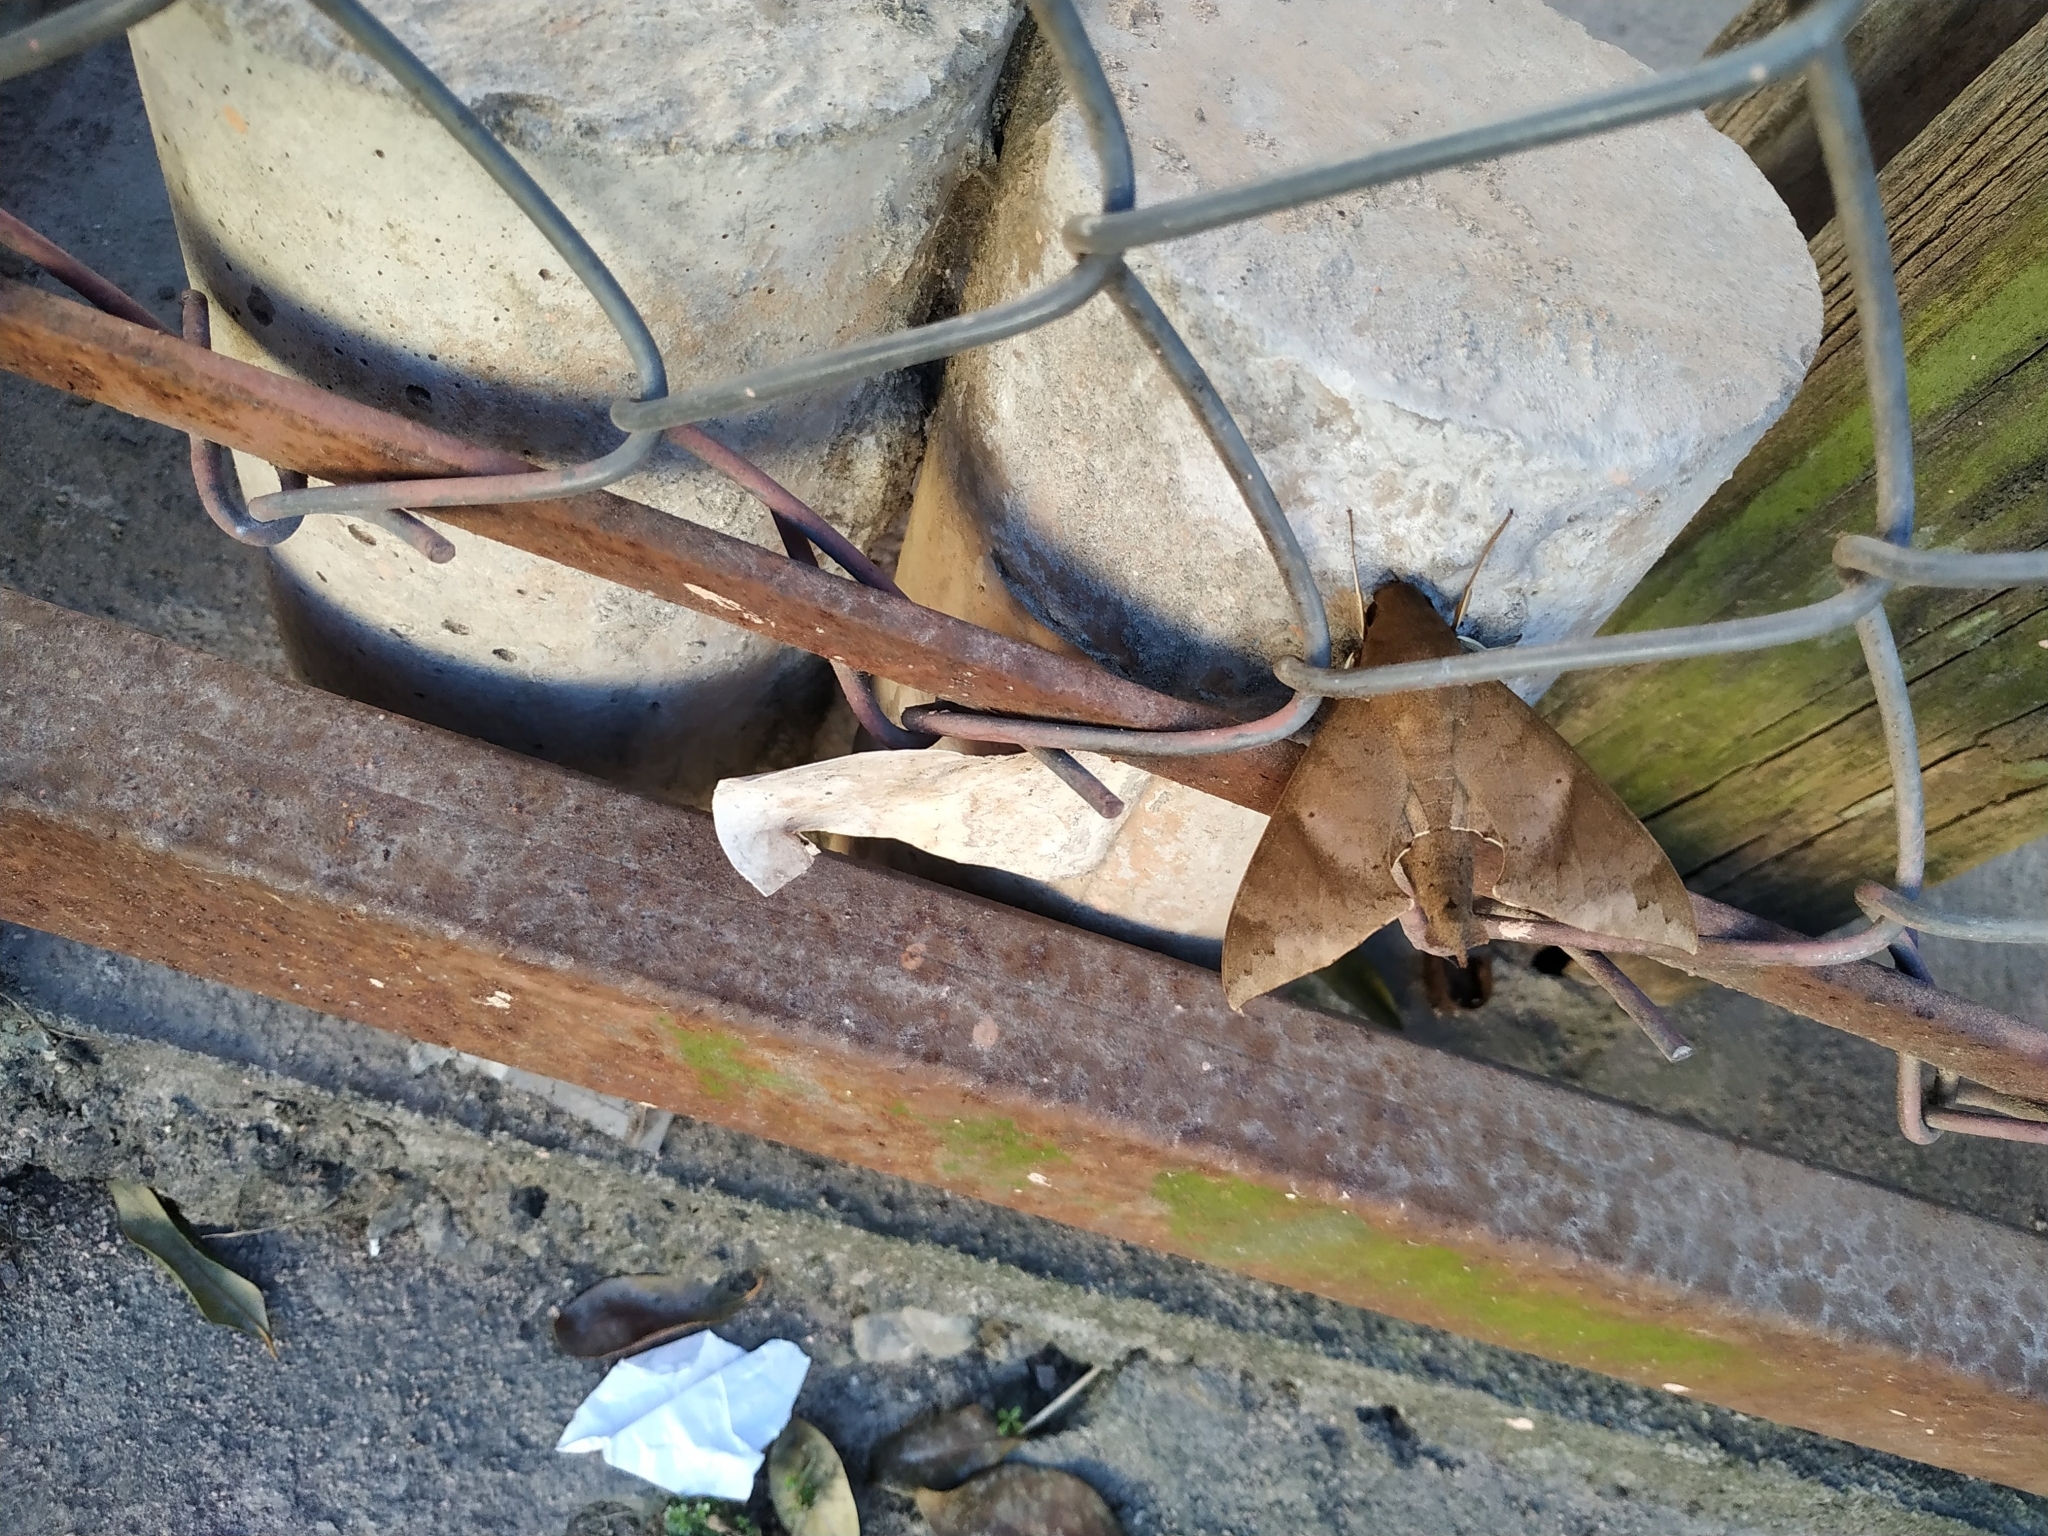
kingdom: Animalia
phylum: Arthropoda
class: Insecta
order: Lepidoptera
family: Sphingidae
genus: Pachylioides
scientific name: Pachylioides resumens
